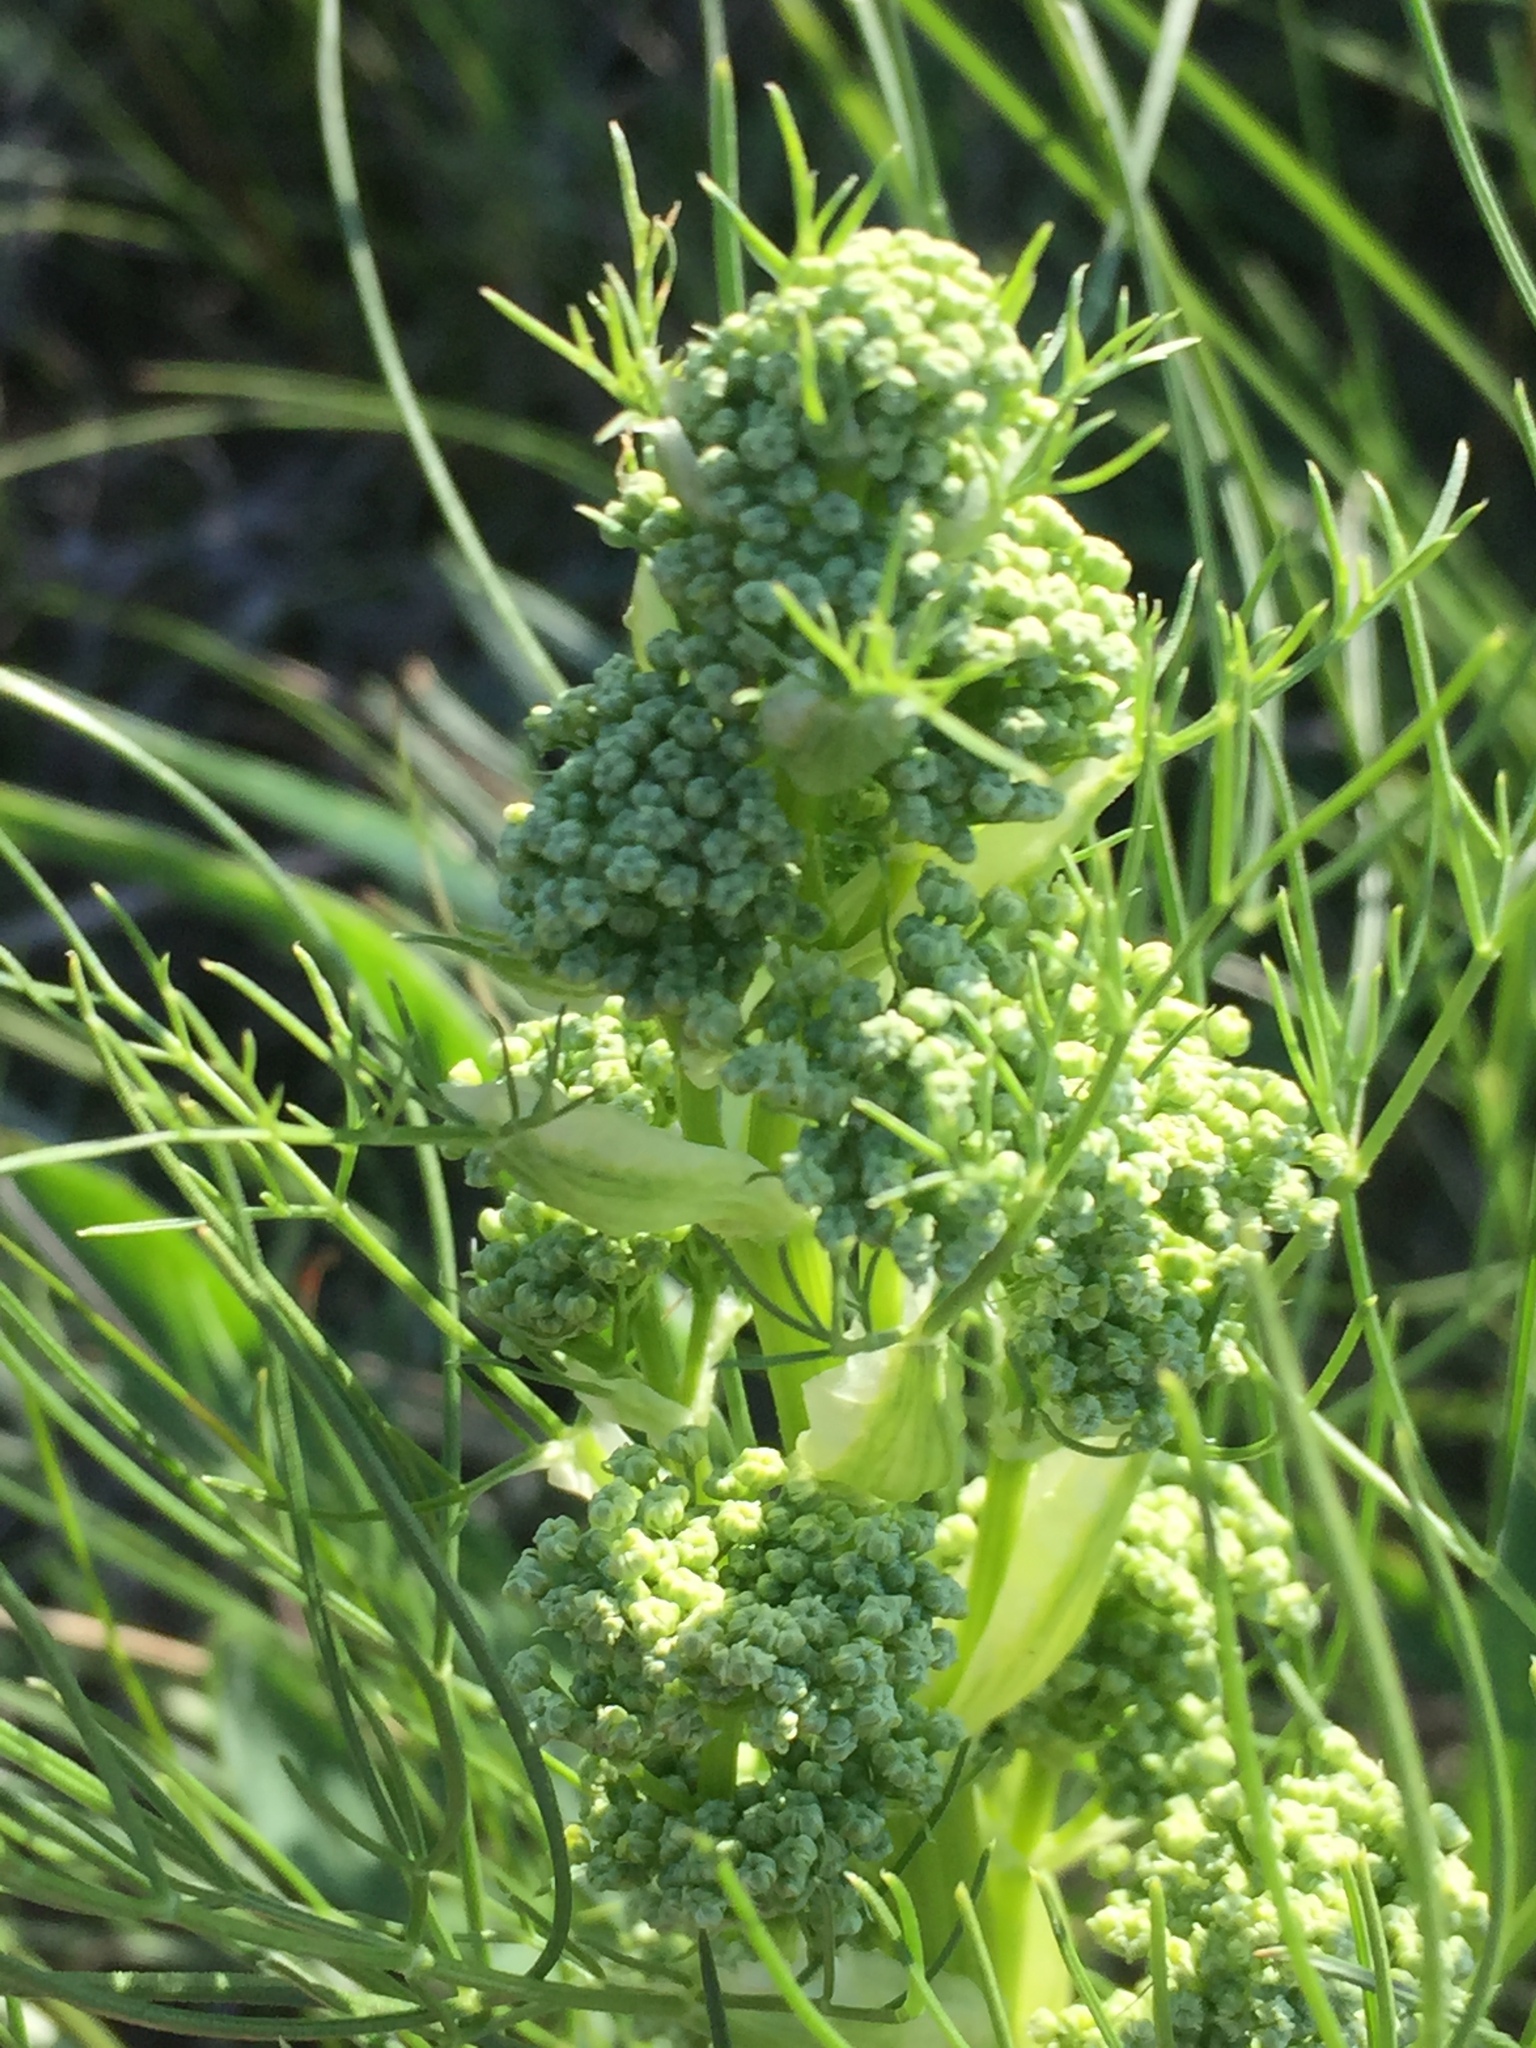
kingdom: Plantae
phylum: Tracheophyta
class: Magnoliopsida
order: Apiales
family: Apiaceae
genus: Trinia
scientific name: Trinia multicaulis
